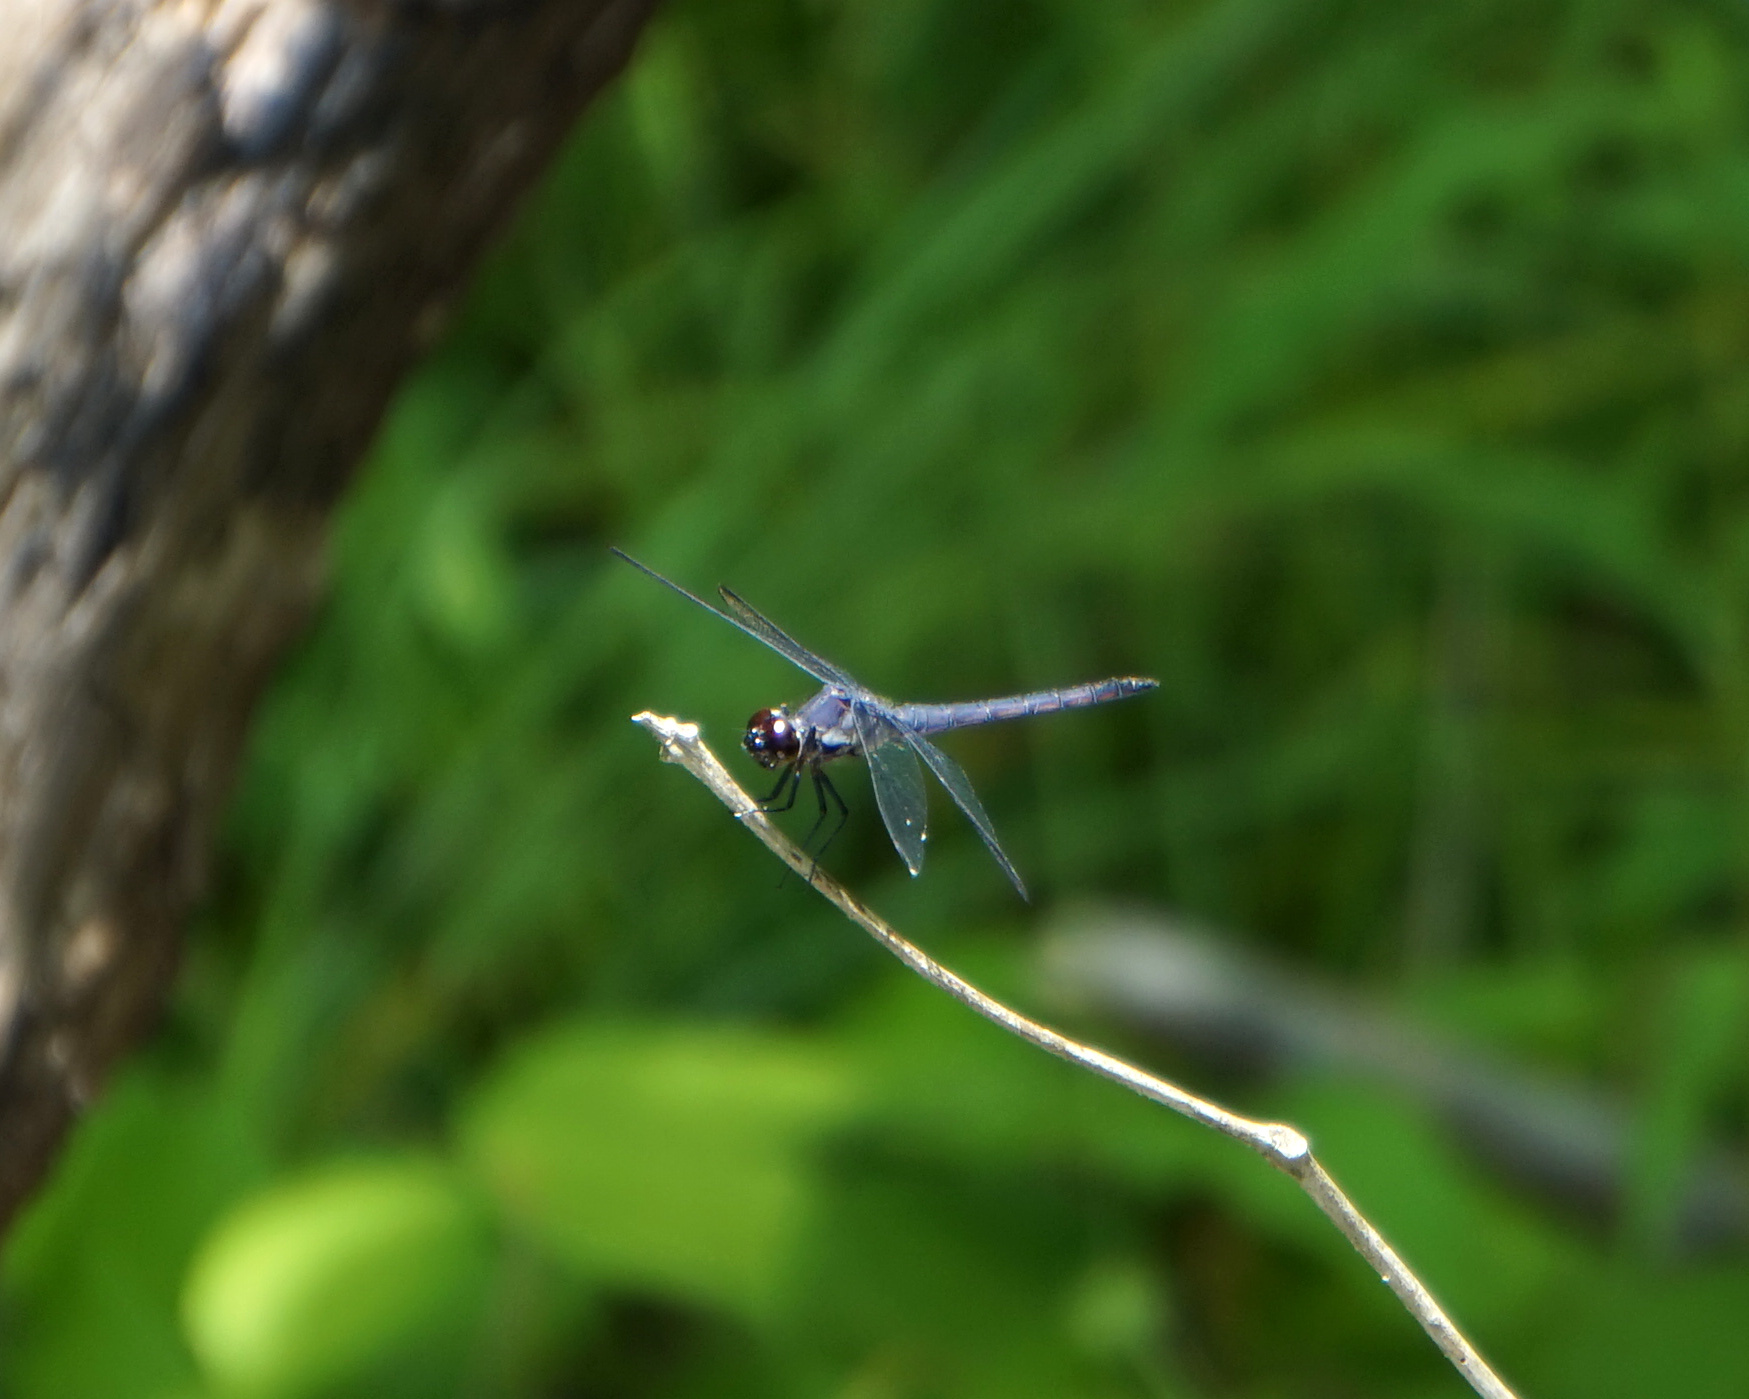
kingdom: Animalia
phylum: Arthropoda
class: Insecta
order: Odonata
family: Libellulidae
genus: Libellula
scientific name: Libellula incesta
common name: Slaty skimmer
